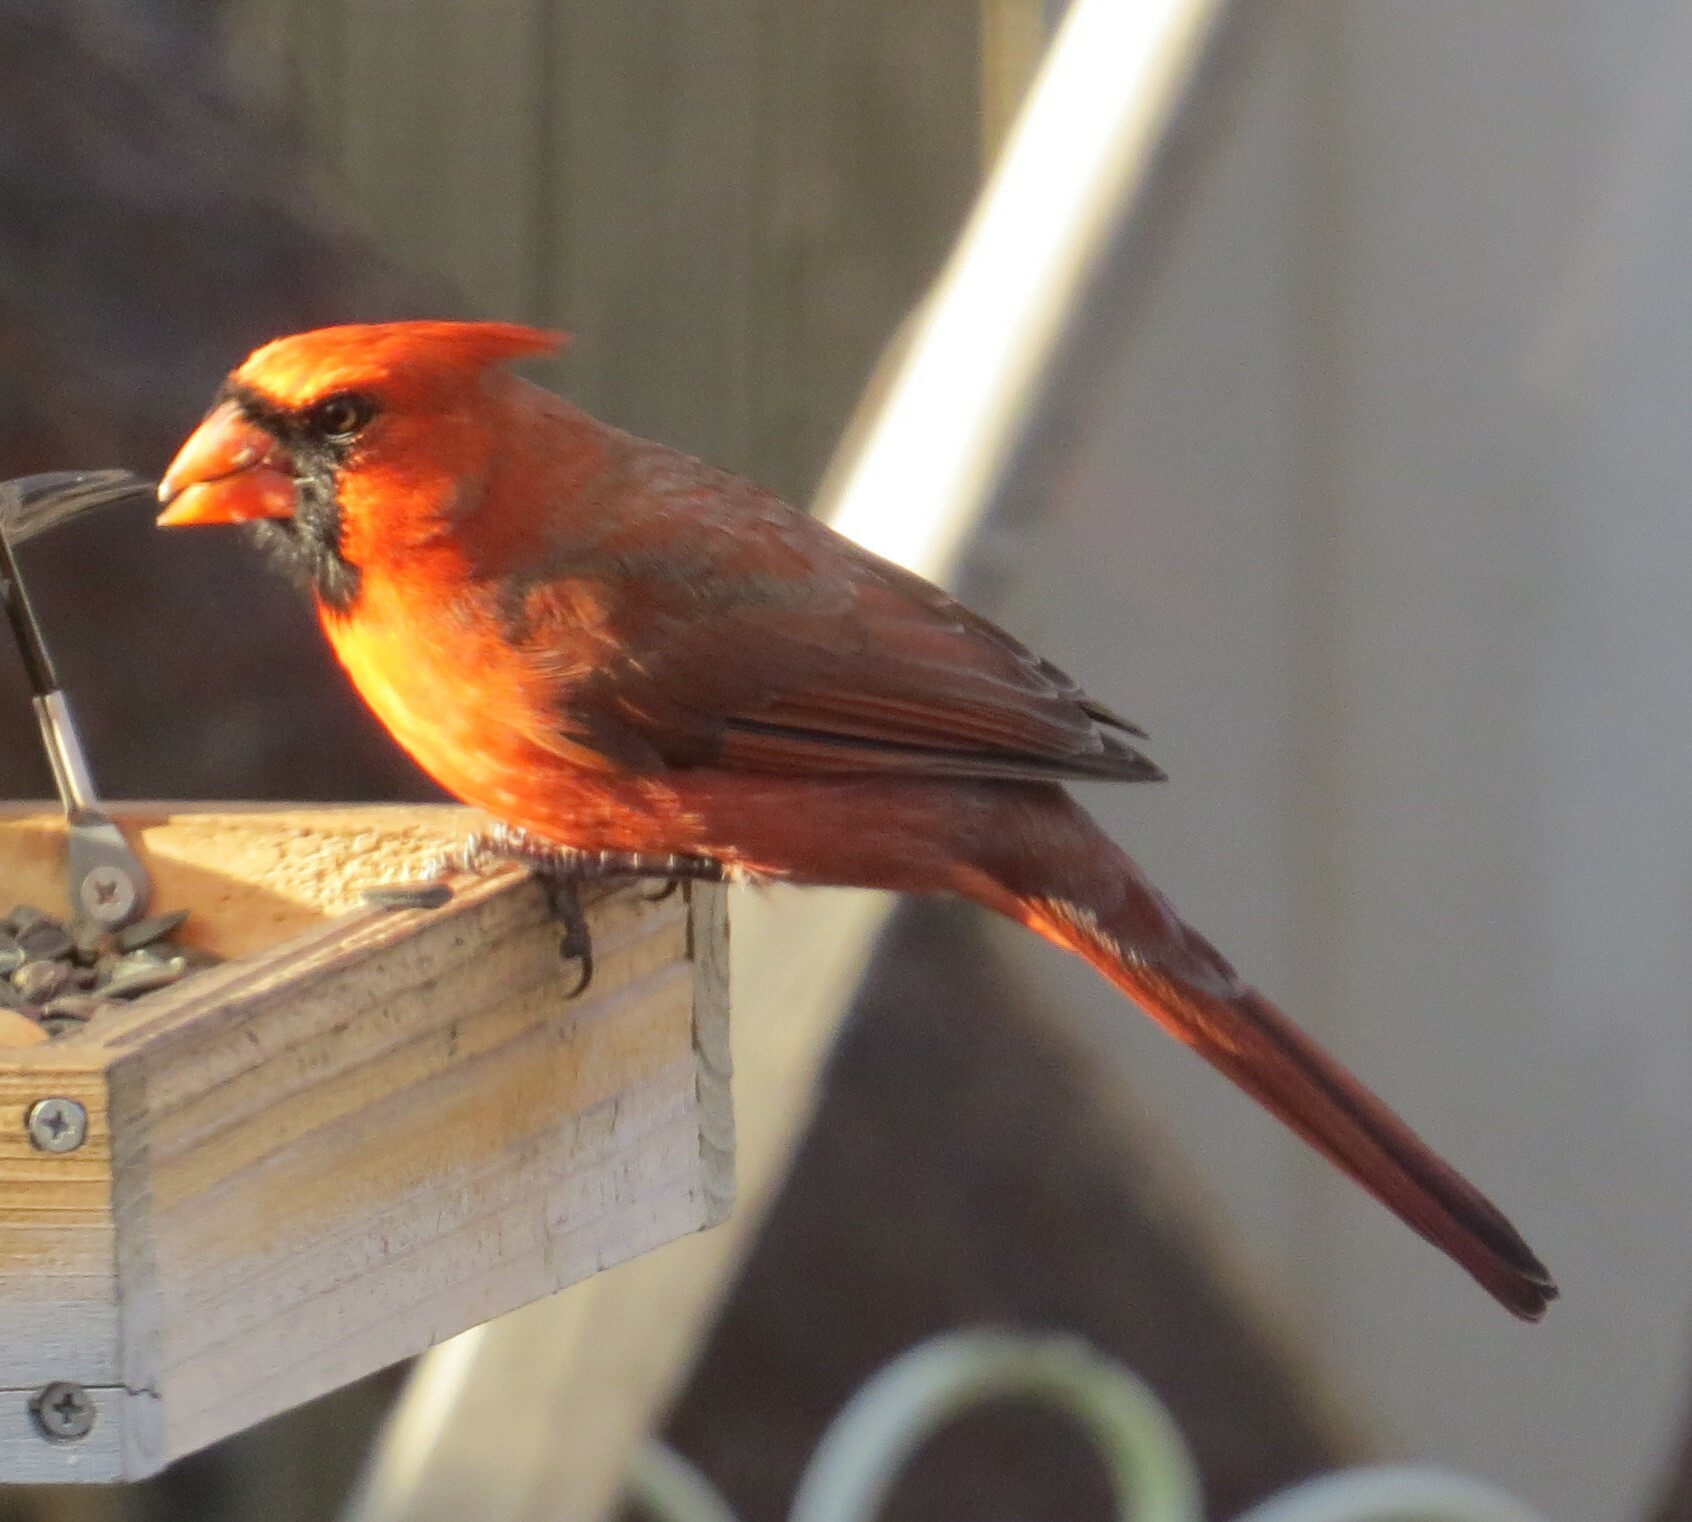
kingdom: Animalia
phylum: Chordata
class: Aves
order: Passeriformes
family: Cardinalidae
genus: Cardinalis
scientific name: Cardinalis cardinalis
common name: Northern cardinal
